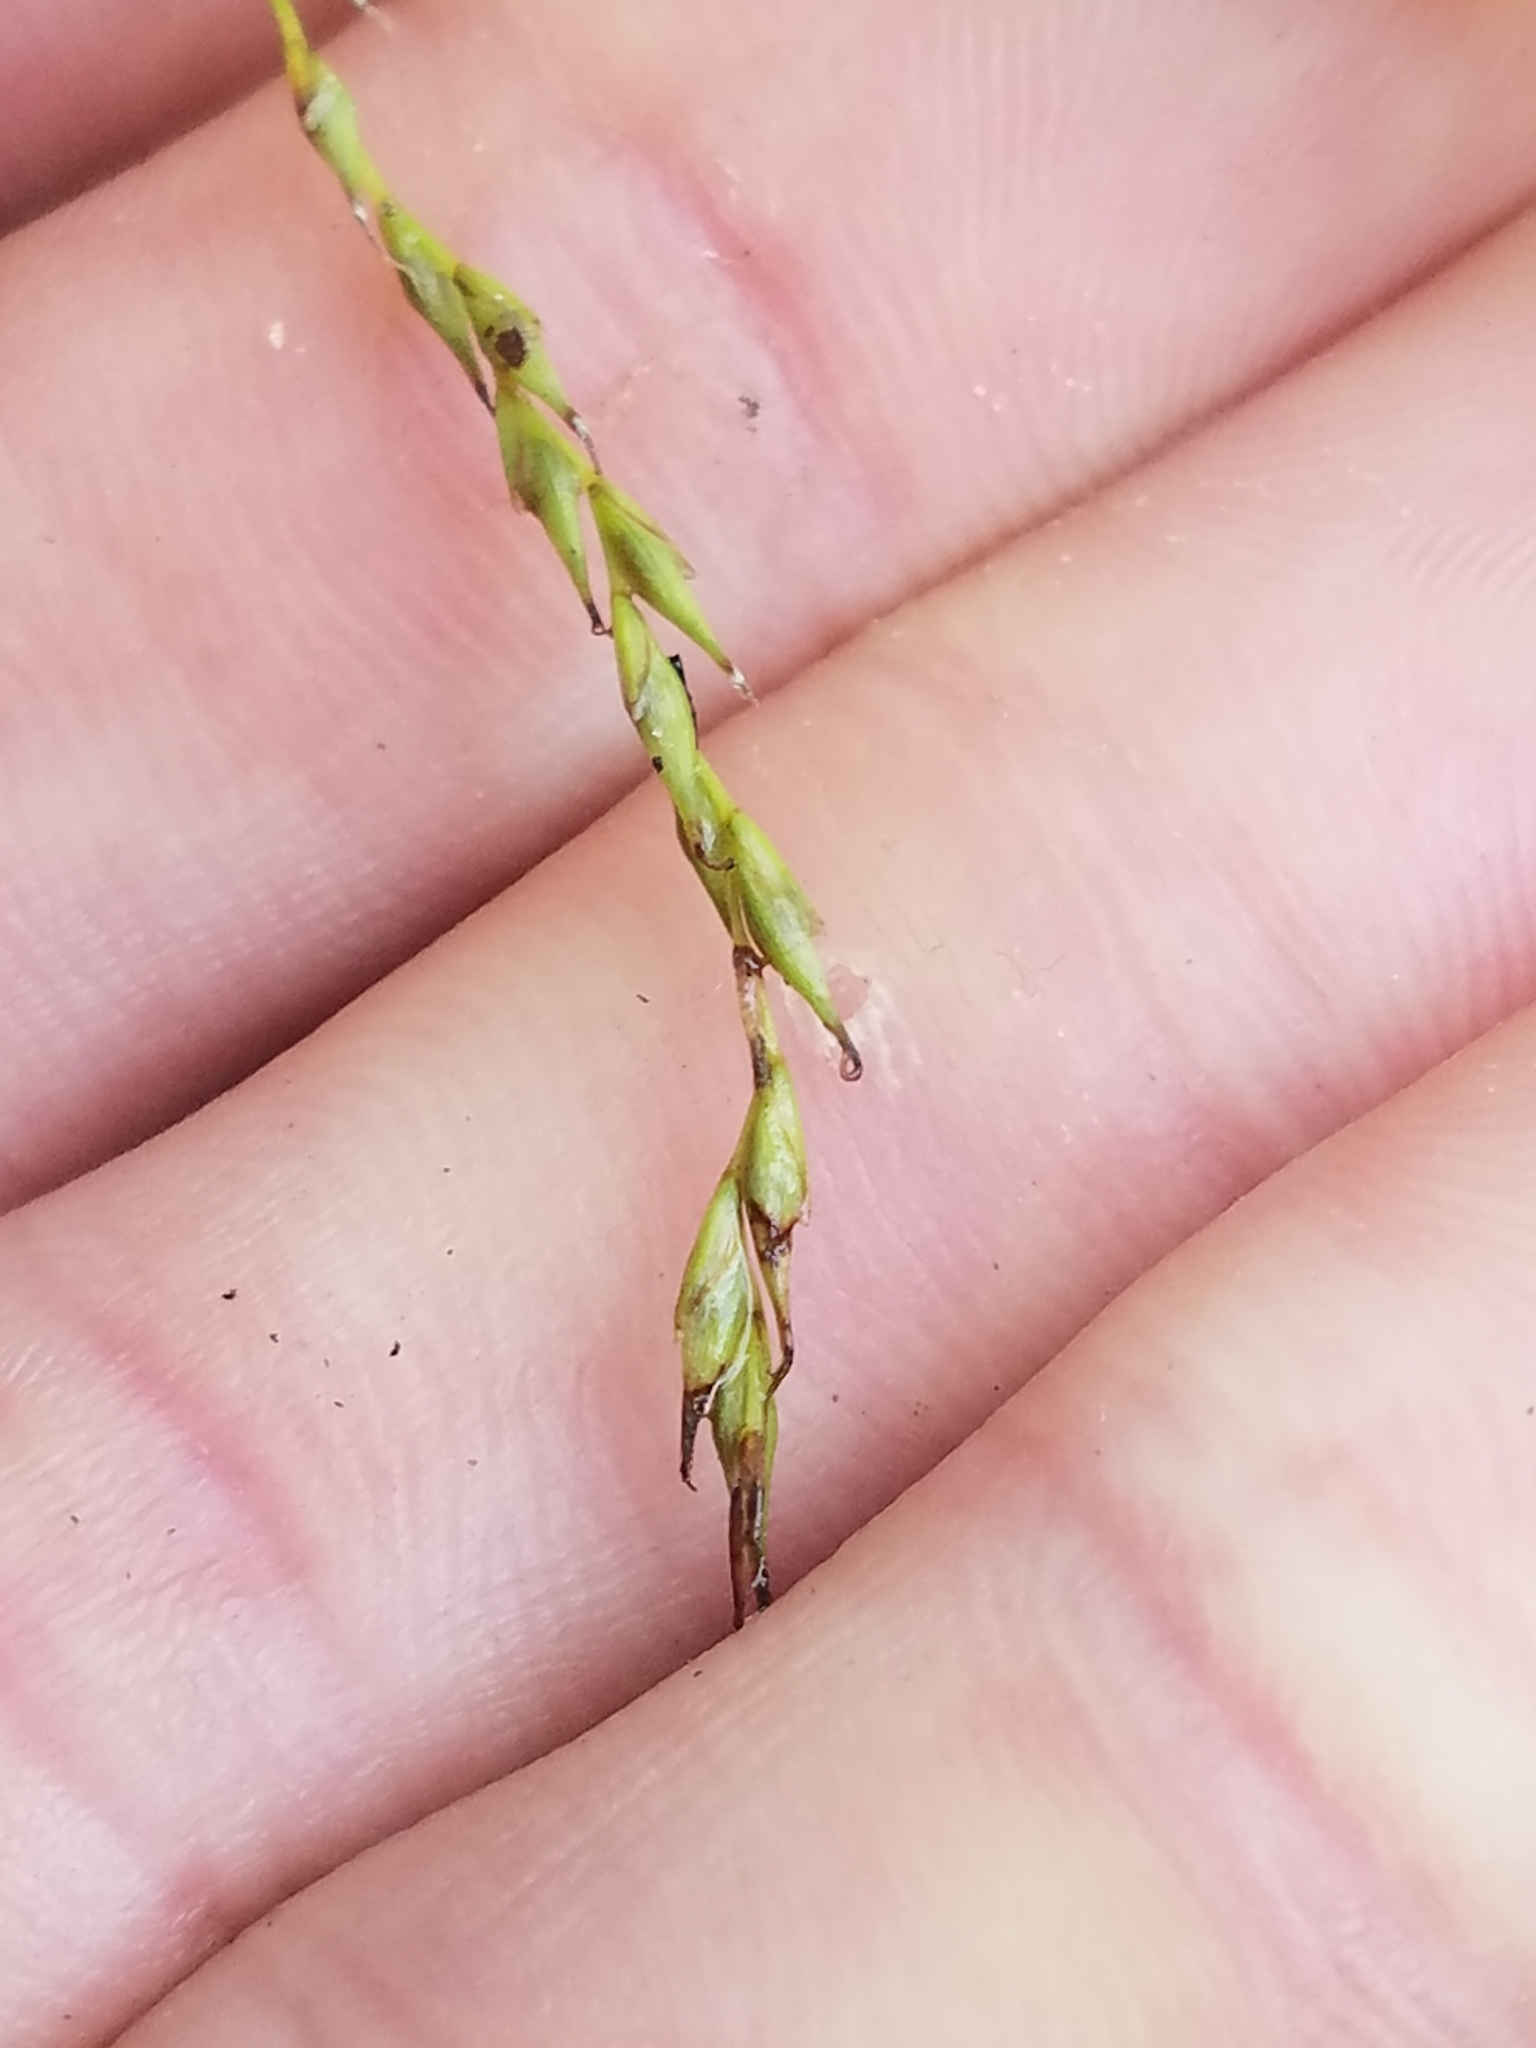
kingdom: Plantae
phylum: Tracheophyta
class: Liliopsida
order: Poales
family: Cyperaceae
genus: Carex
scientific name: Carex debilis
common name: White-edge sedge
